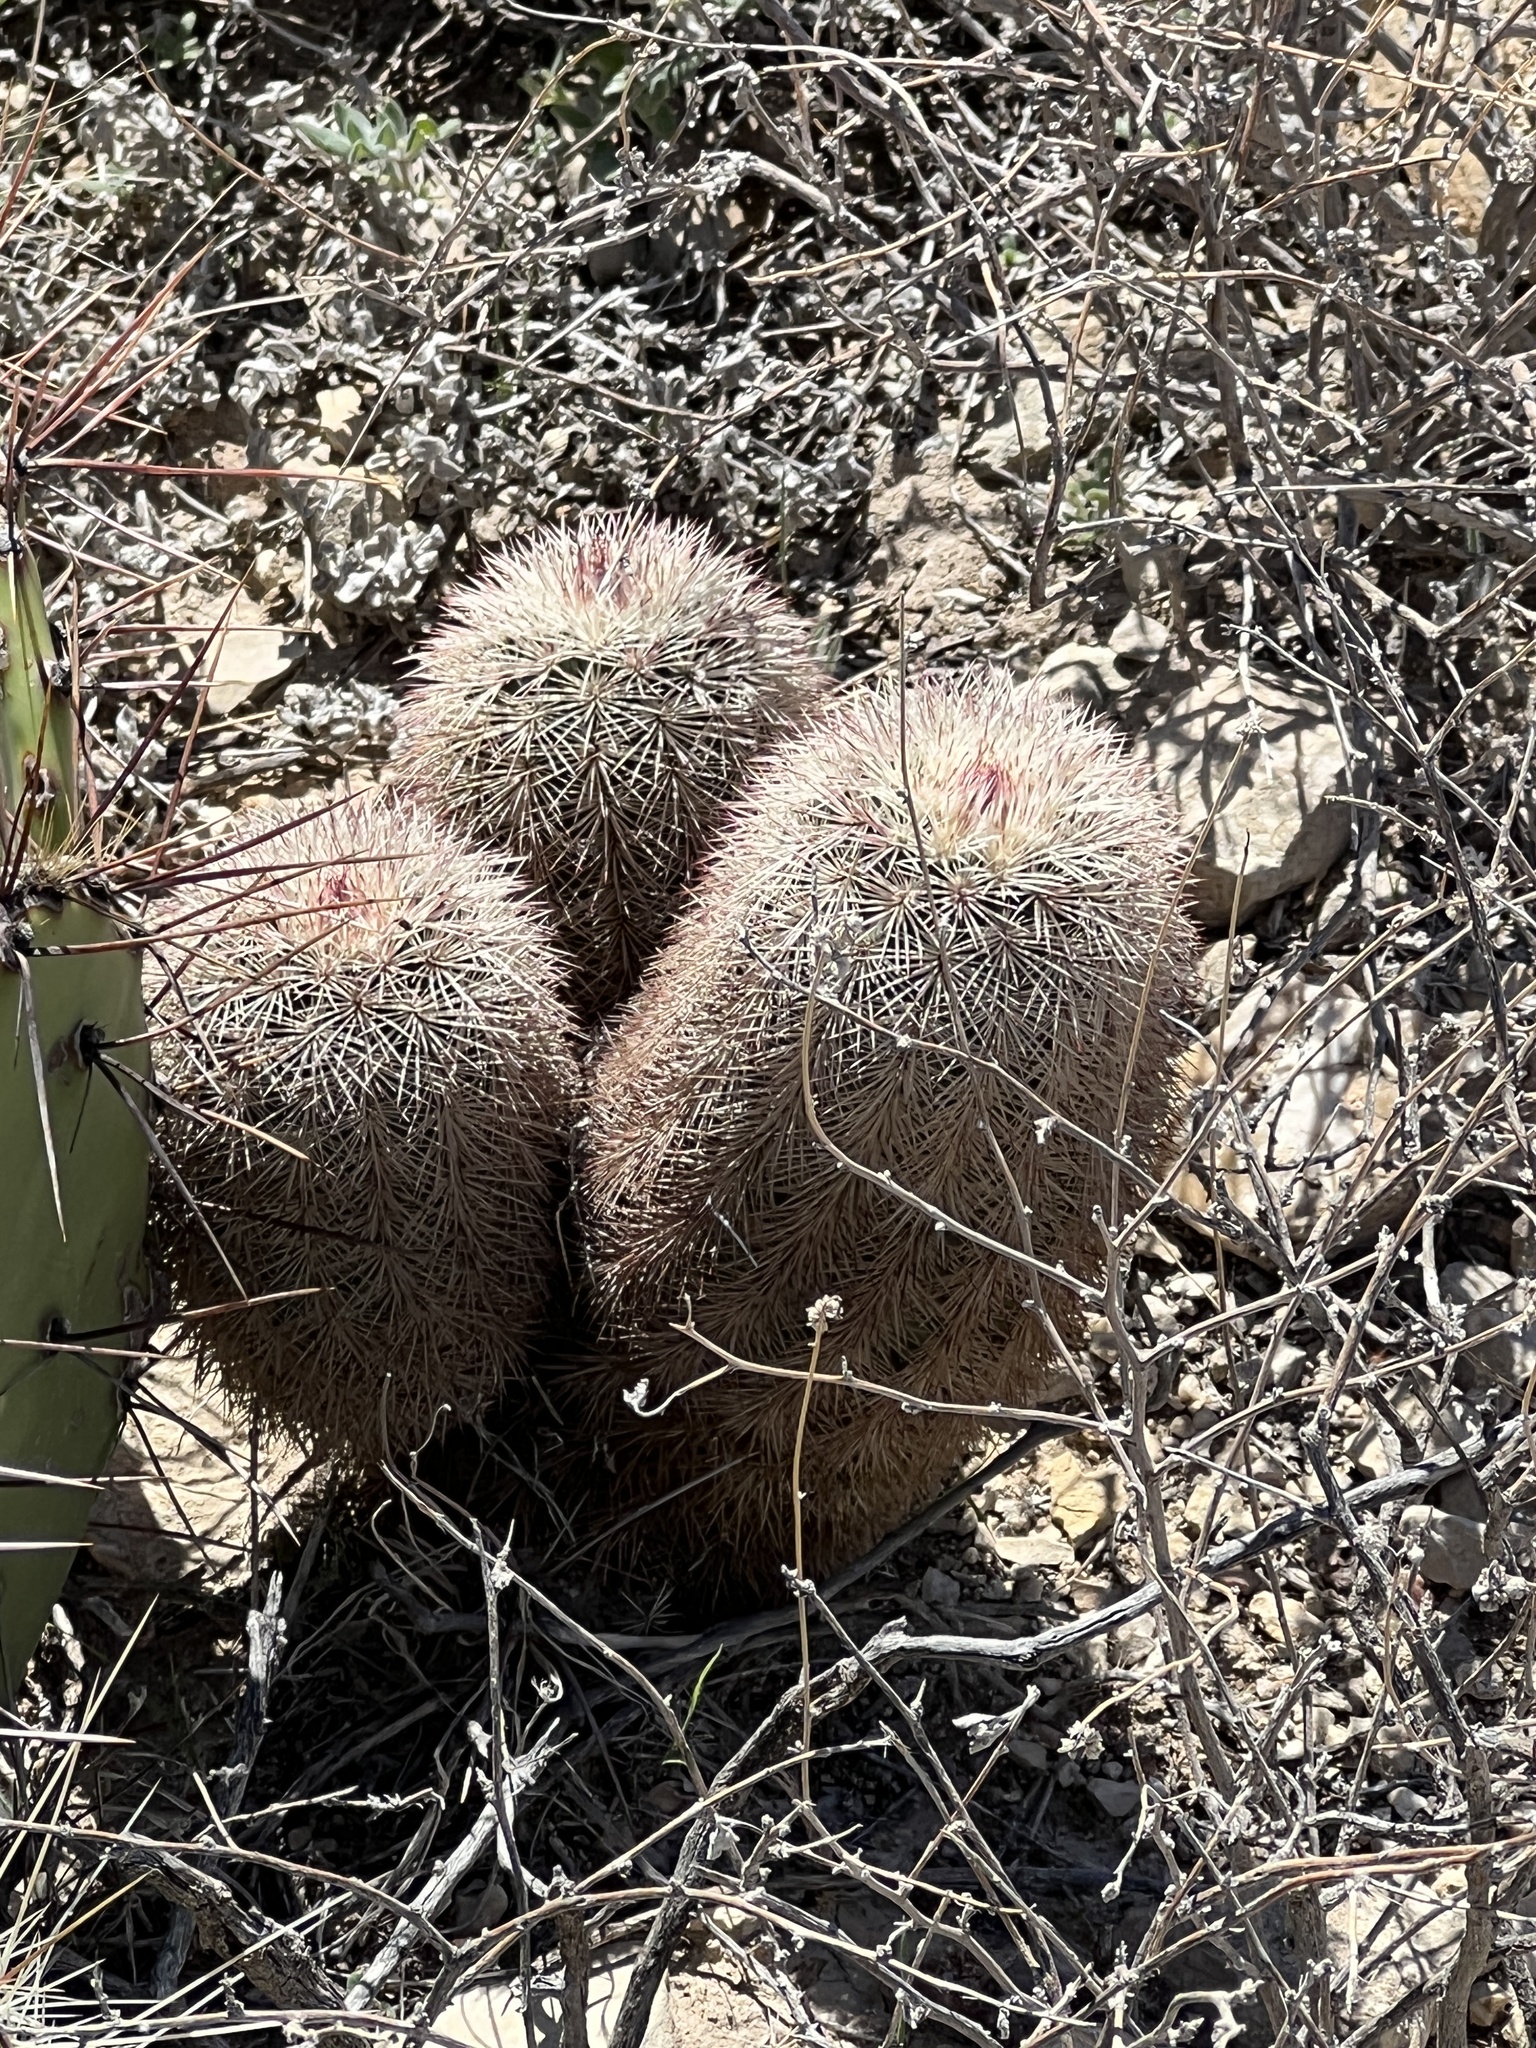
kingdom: Plantae
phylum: Tracheophyta
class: Magnoliopsida
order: Caryophyllales
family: Cactaceae
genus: Echinocereus
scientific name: Echinocereus dasyacanthus
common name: Spiny hedgehog cactus
